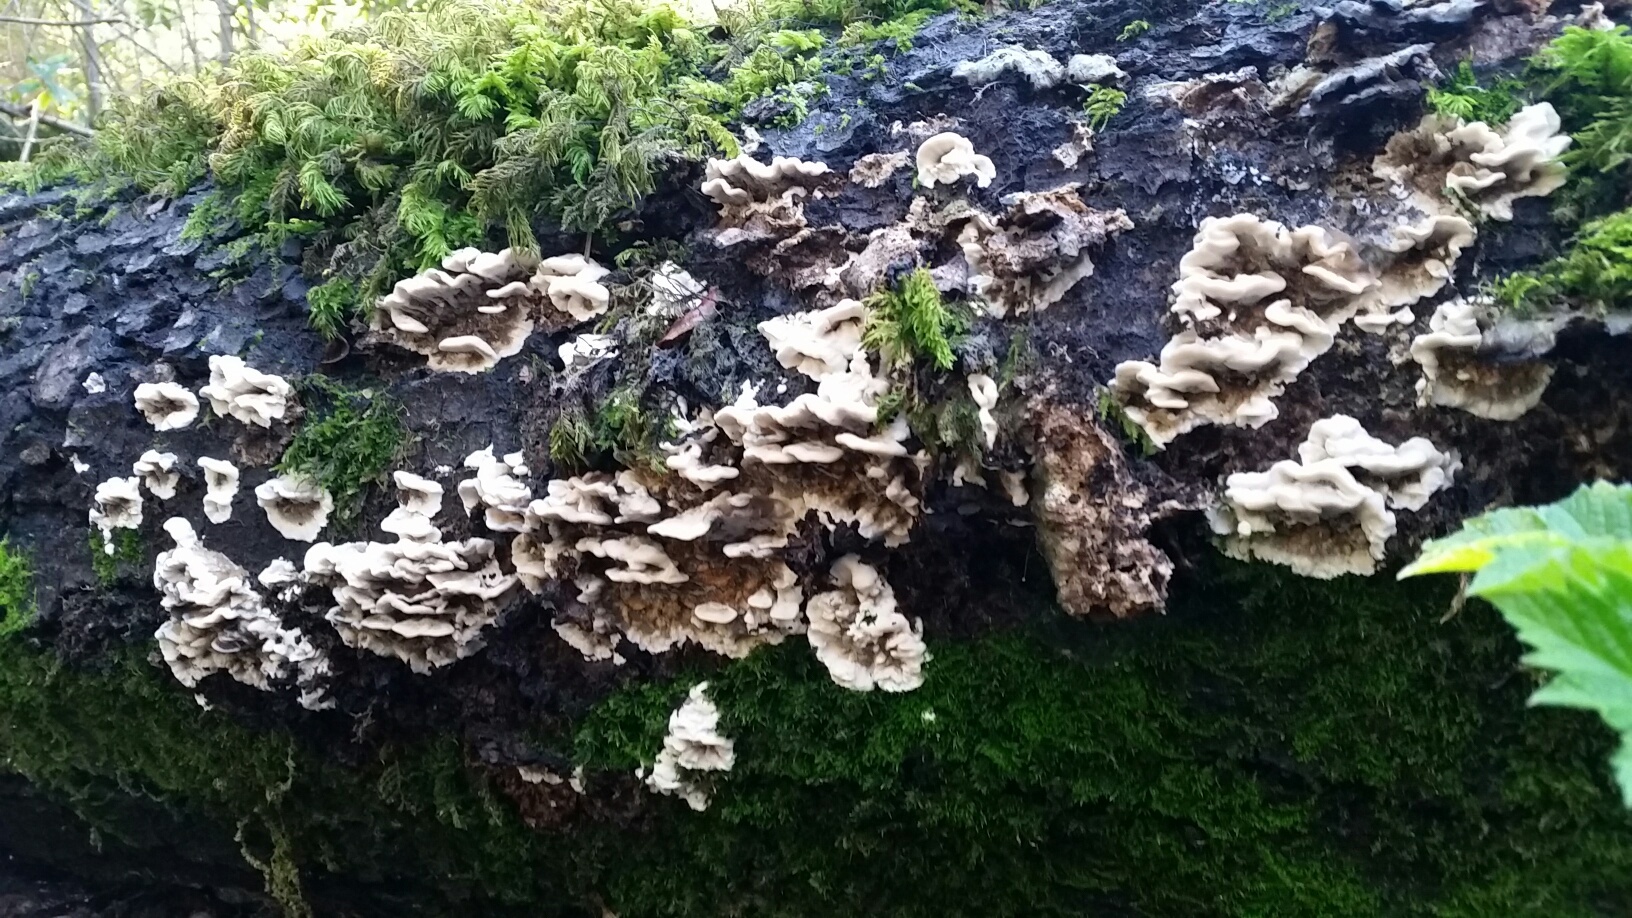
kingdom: Fungi
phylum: Basidiomycota
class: Agaricomycetes
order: Polyporales
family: Phanerochaetaceae
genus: Bjerkandera
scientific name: Bjerkandera adusta
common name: Smoky bracket
